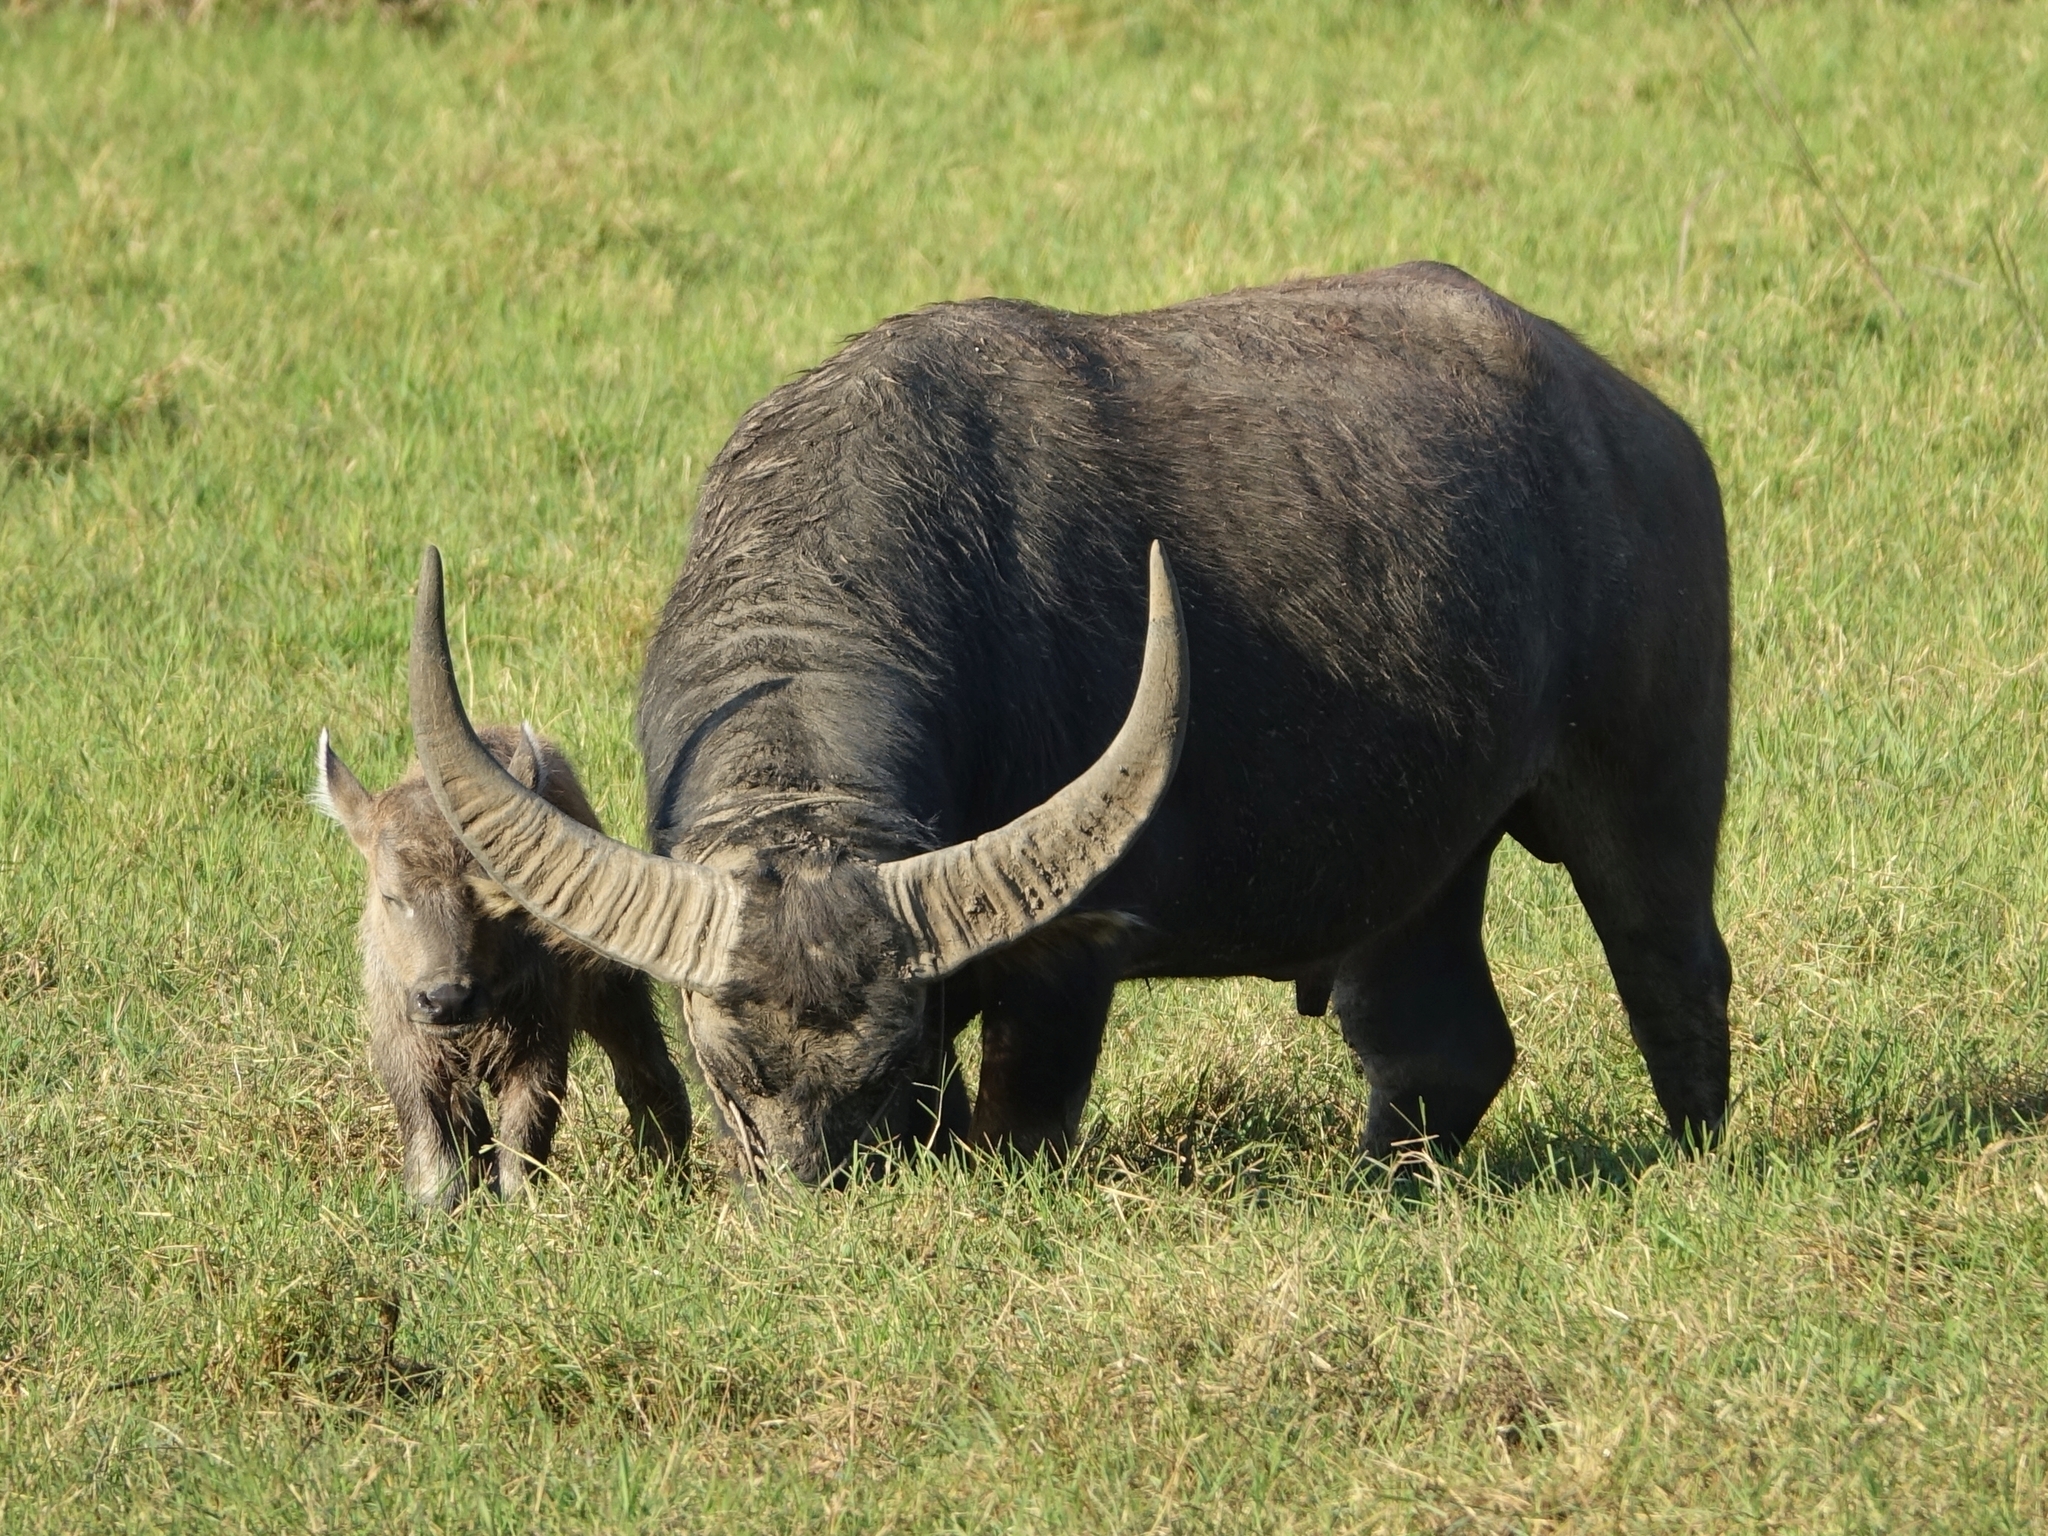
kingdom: Animalia
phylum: Chordata
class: Mammalia
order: Artiodactyla
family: Bovidae
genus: Bubalus
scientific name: Bubalus bubalis
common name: Water buffalo
